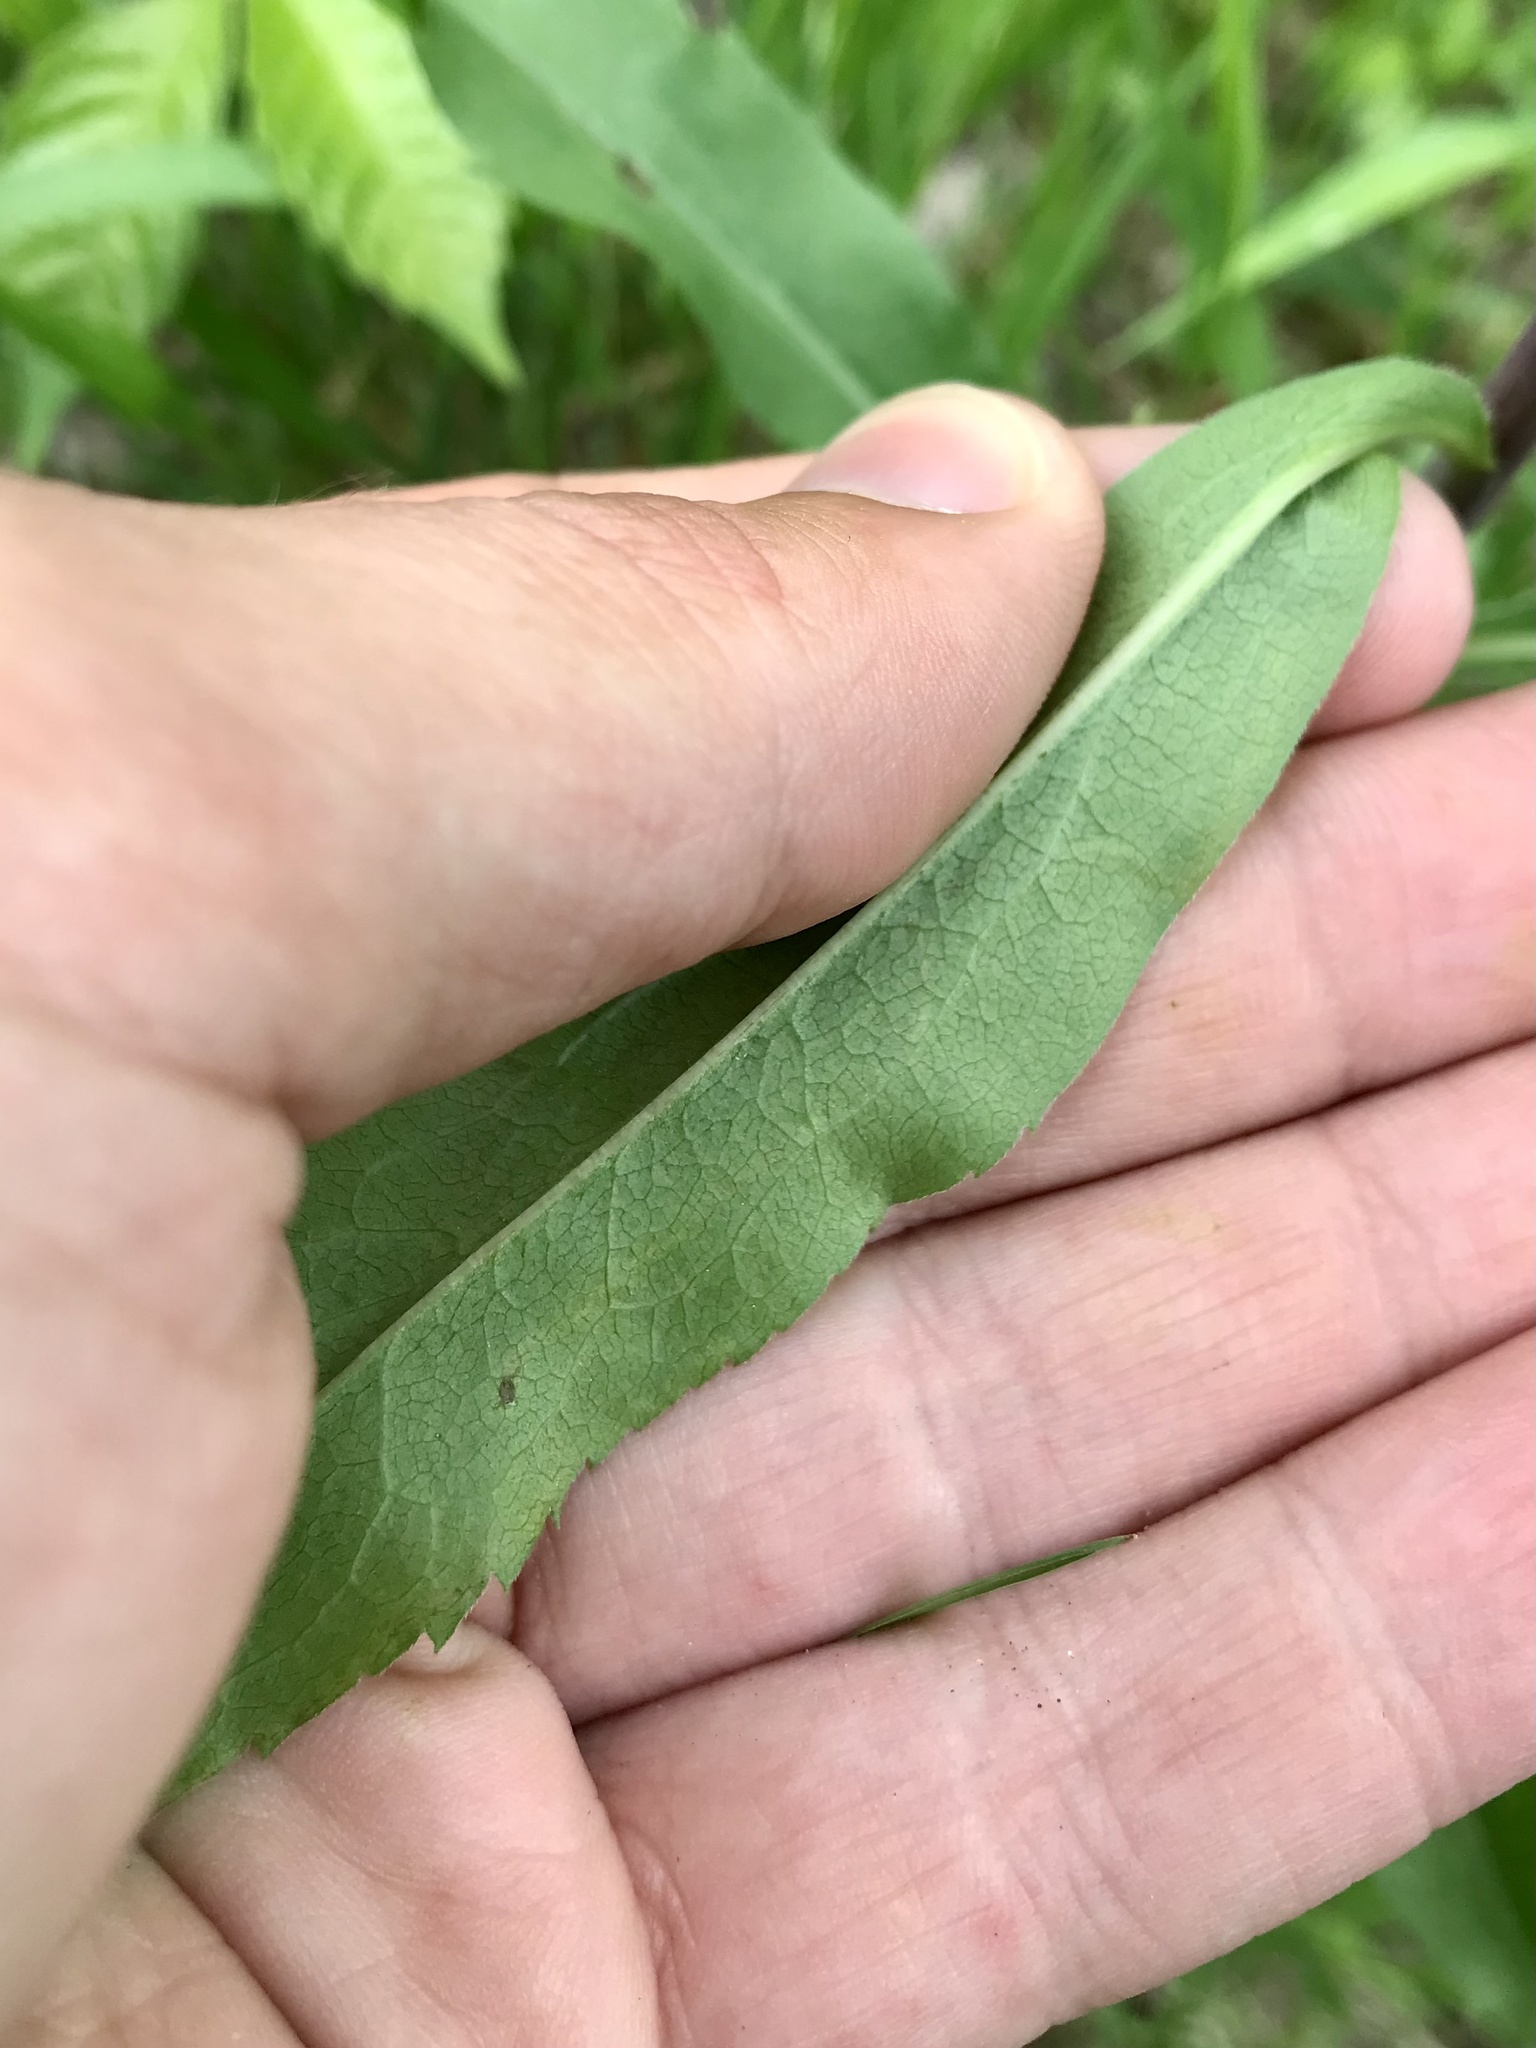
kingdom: Animalia
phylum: Arthropoda
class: Insecta
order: Diptera
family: Agromyzidae
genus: Liriomyza
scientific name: Liriomyza eupatorii
